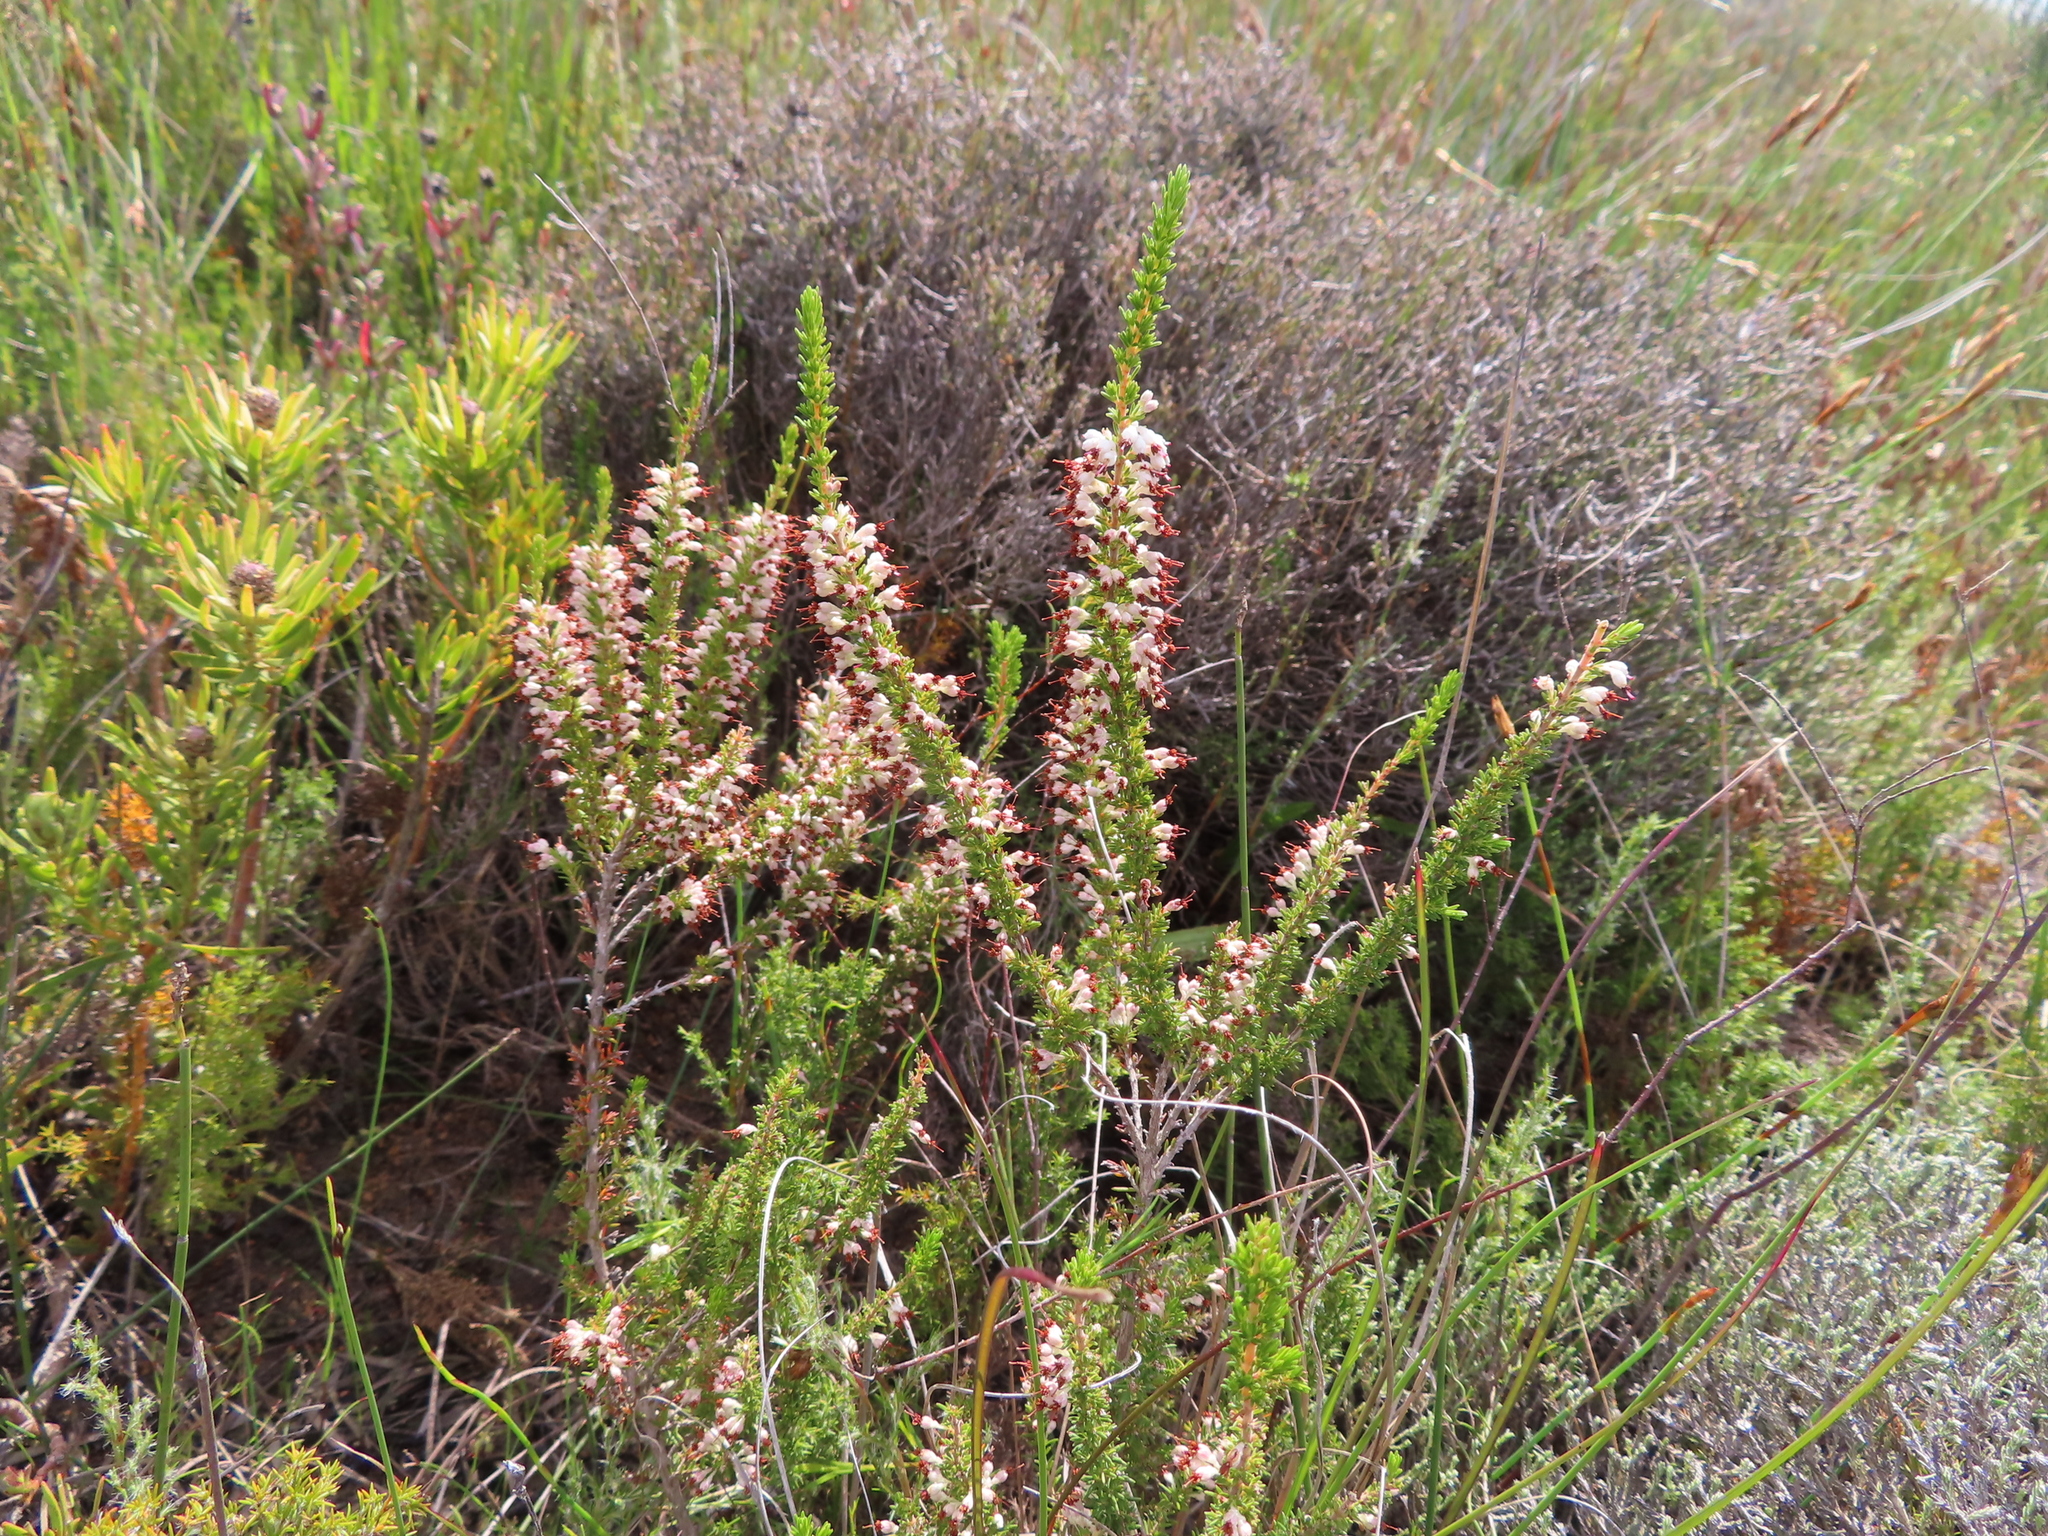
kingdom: Plantae
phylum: Tracheophyta
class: Magnoliopsida
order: Ericales
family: Ericaceae
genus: Erica
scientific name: Erica imbricata
